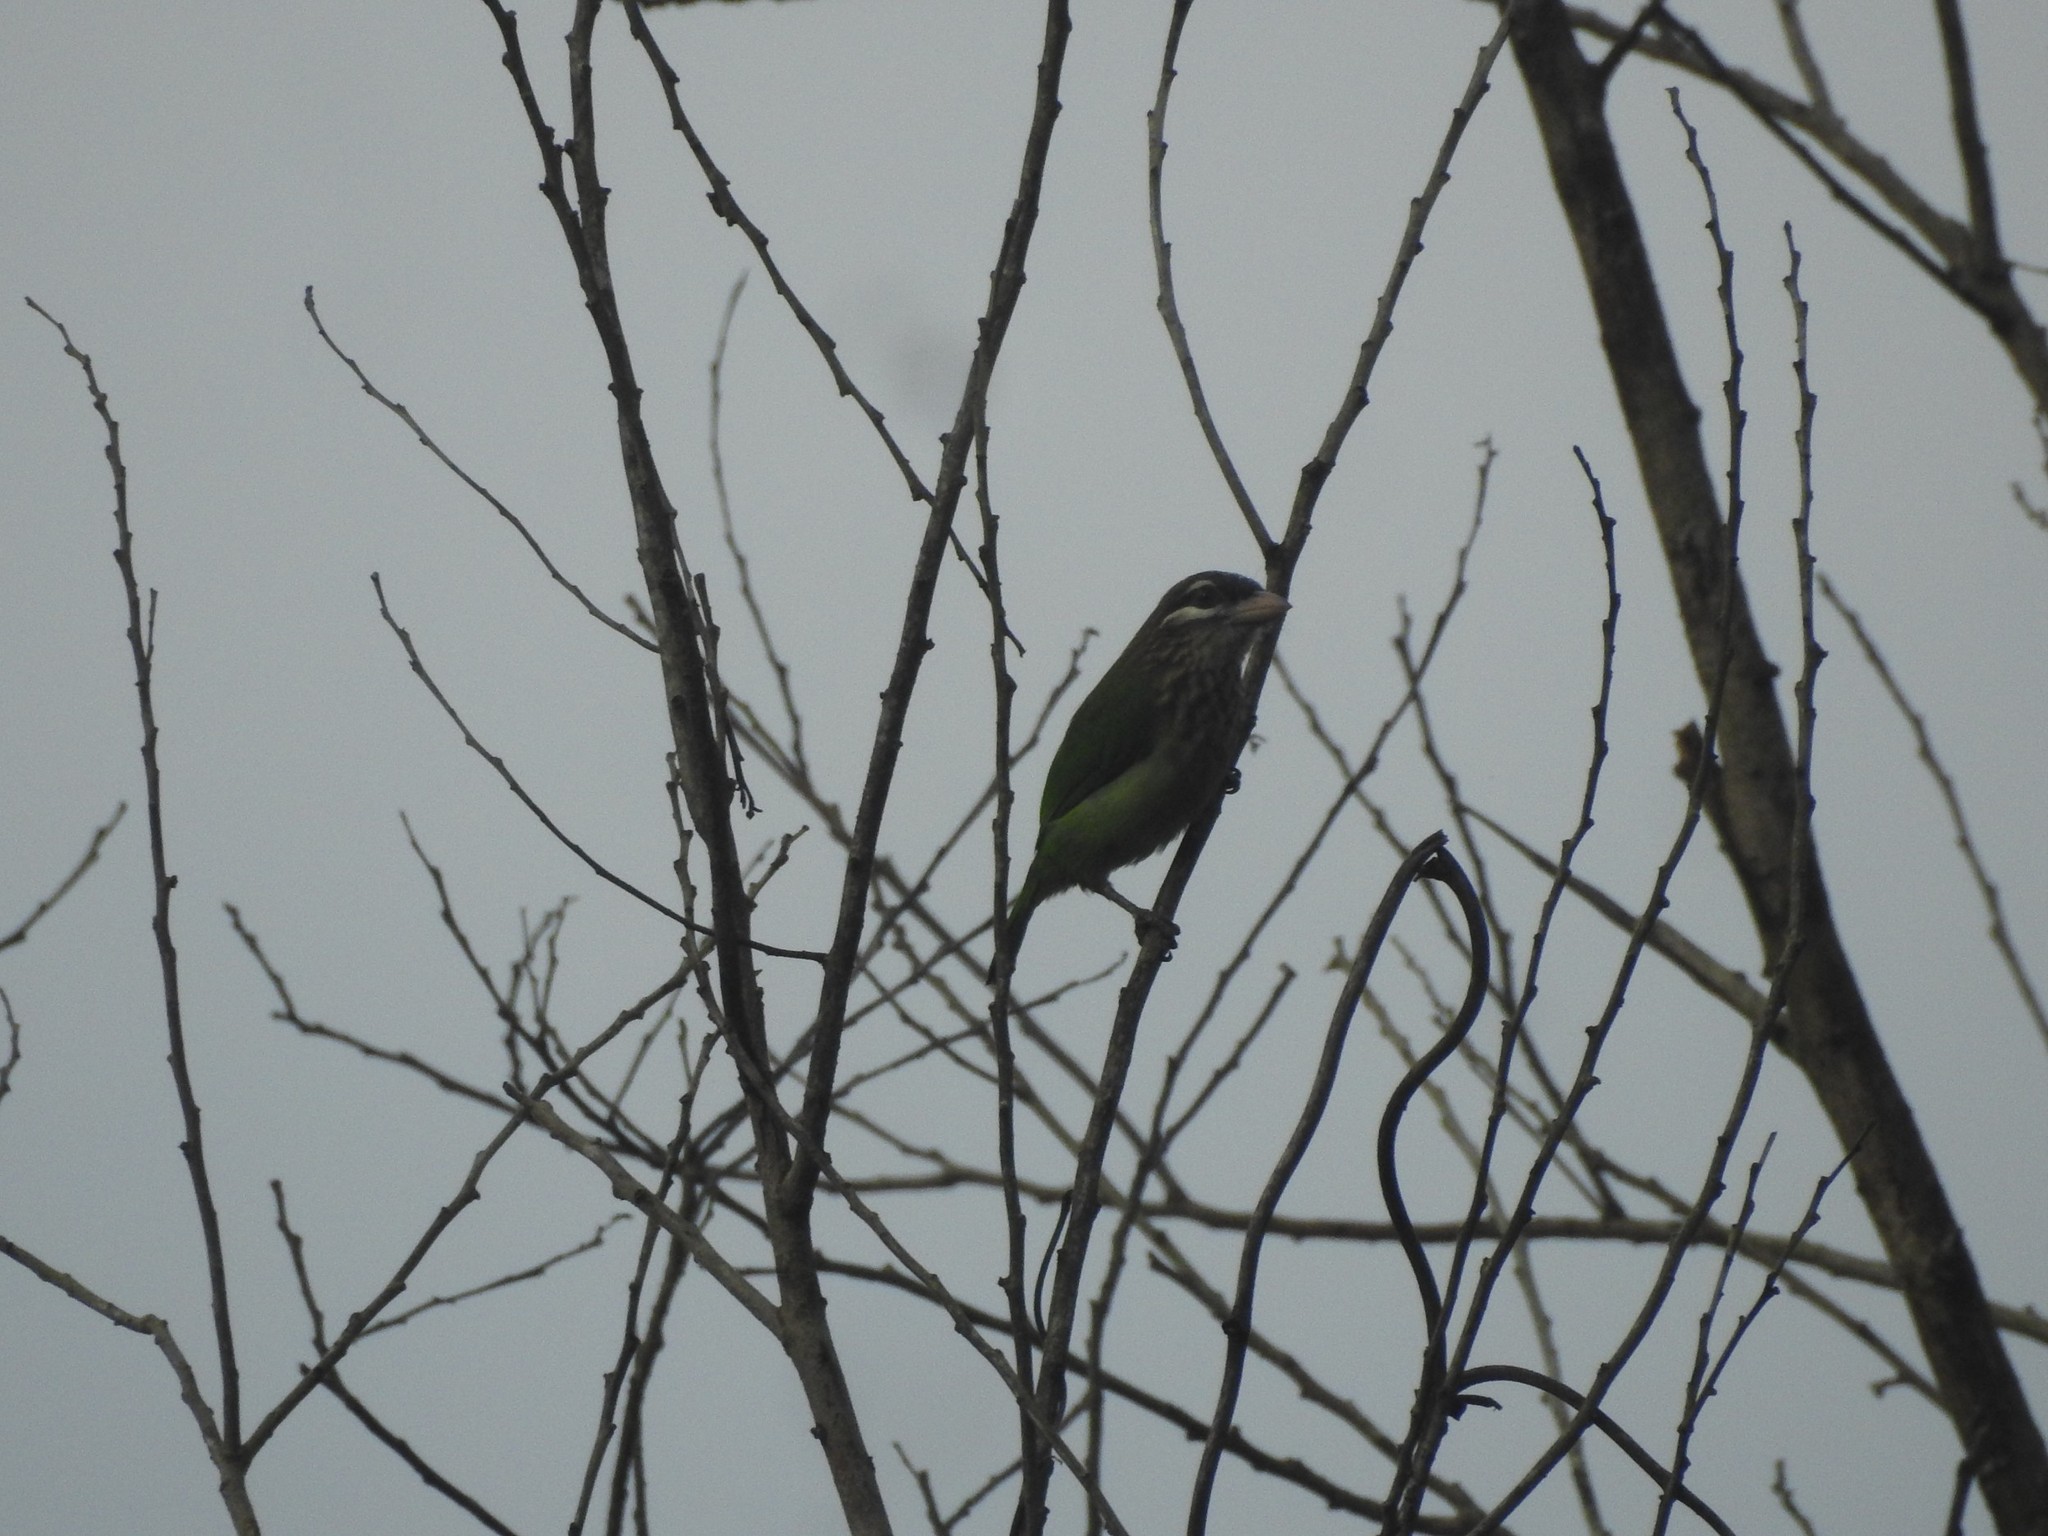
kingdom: Animalia
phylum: Chordata
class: Aves
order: Piciformes
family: Megalaimidae
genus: Psilopogon
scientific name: Psilopogon viridis
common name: White-cheeked barbet
